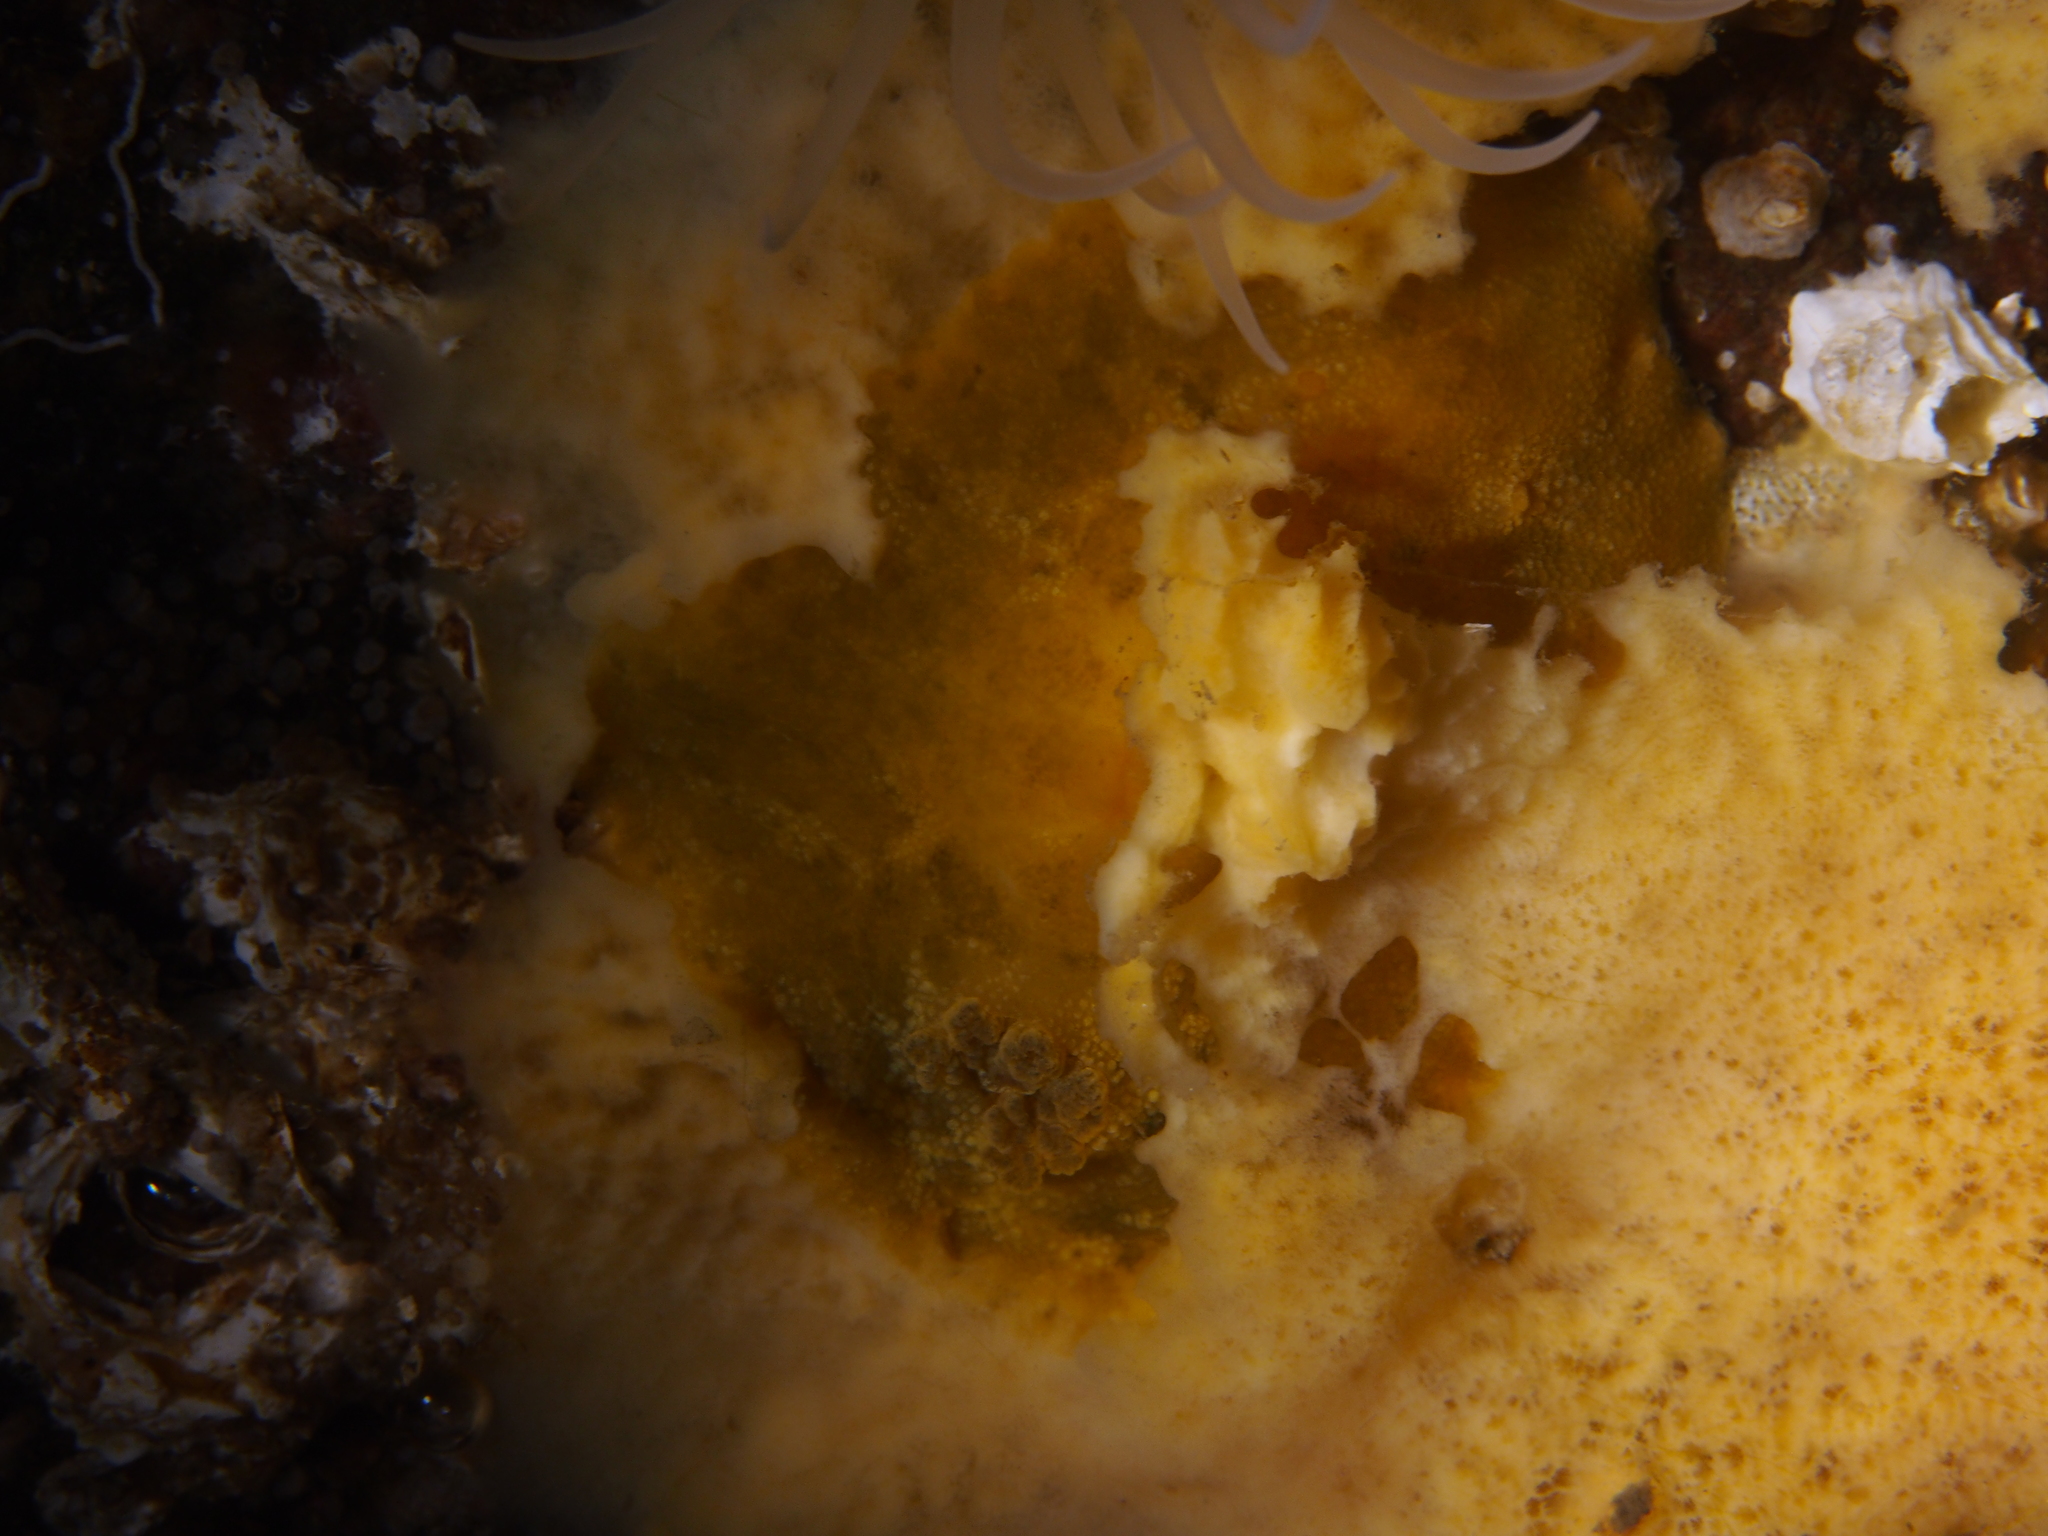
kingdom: Animalia
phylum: Mollusca
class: Gastropoda
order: Nudibranchia
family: Dorididae
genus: Doris
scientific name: Doris pseudoargus
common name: Sea lemon
